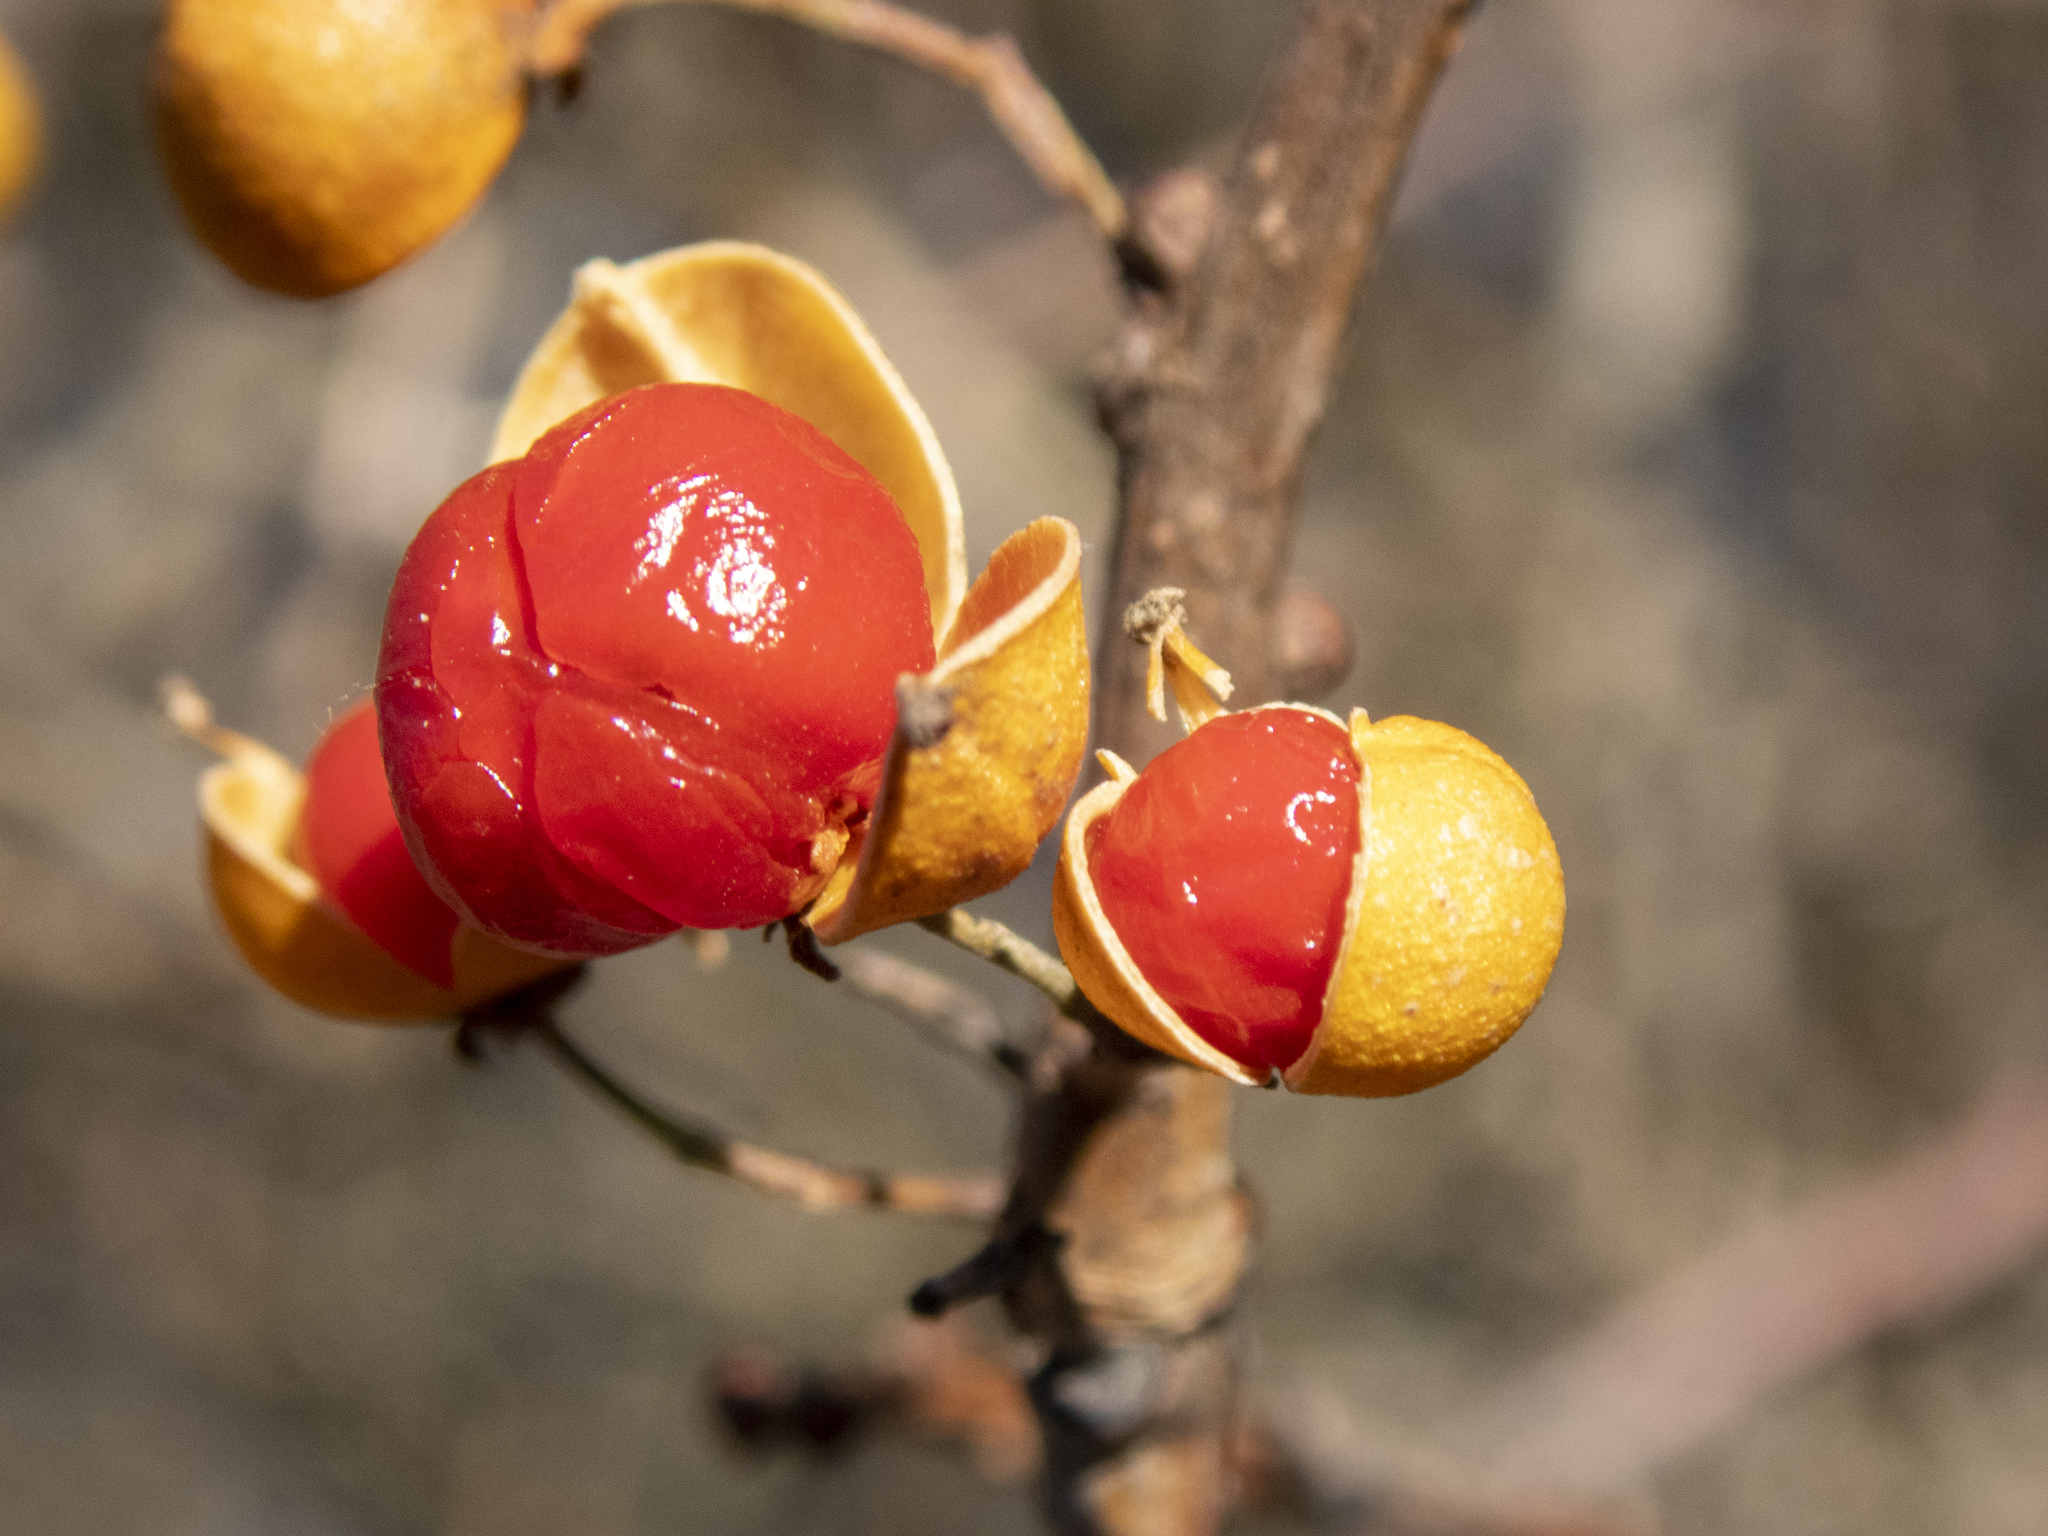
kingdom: Plantae
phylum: Tracheophyta
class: Magnoliopsida
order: Celastrales
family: Celastraceae
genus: Celastrus
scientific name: Celastrus orbiculatus
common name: Oriental bittersweet
